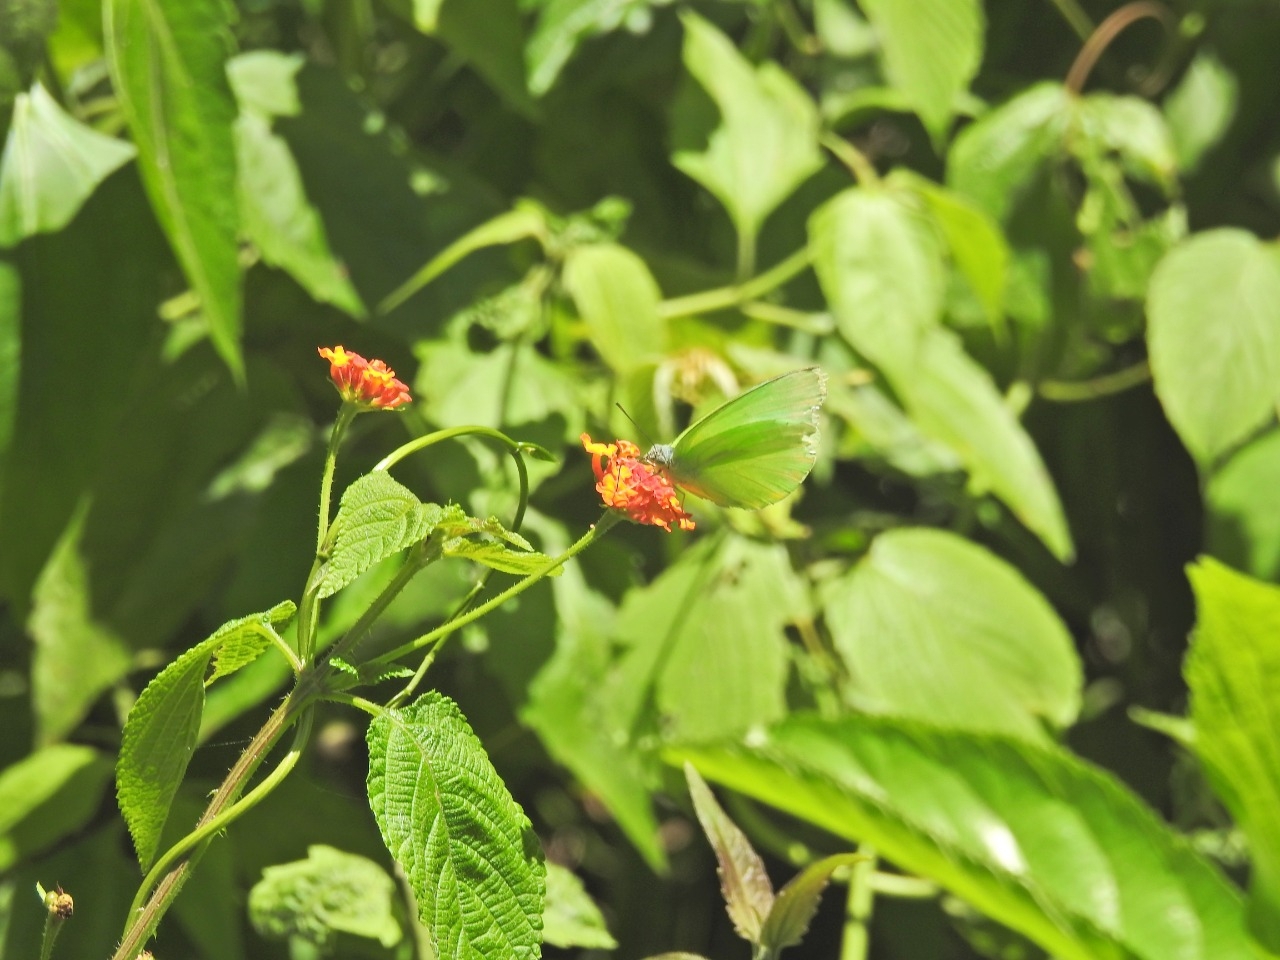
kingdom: Animalia
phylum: Arthropoda
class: Insecta
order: Lepidoptera
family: Pieridae
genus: Catopsilia
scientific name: Catopsilia pomona
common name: Common emigrant
